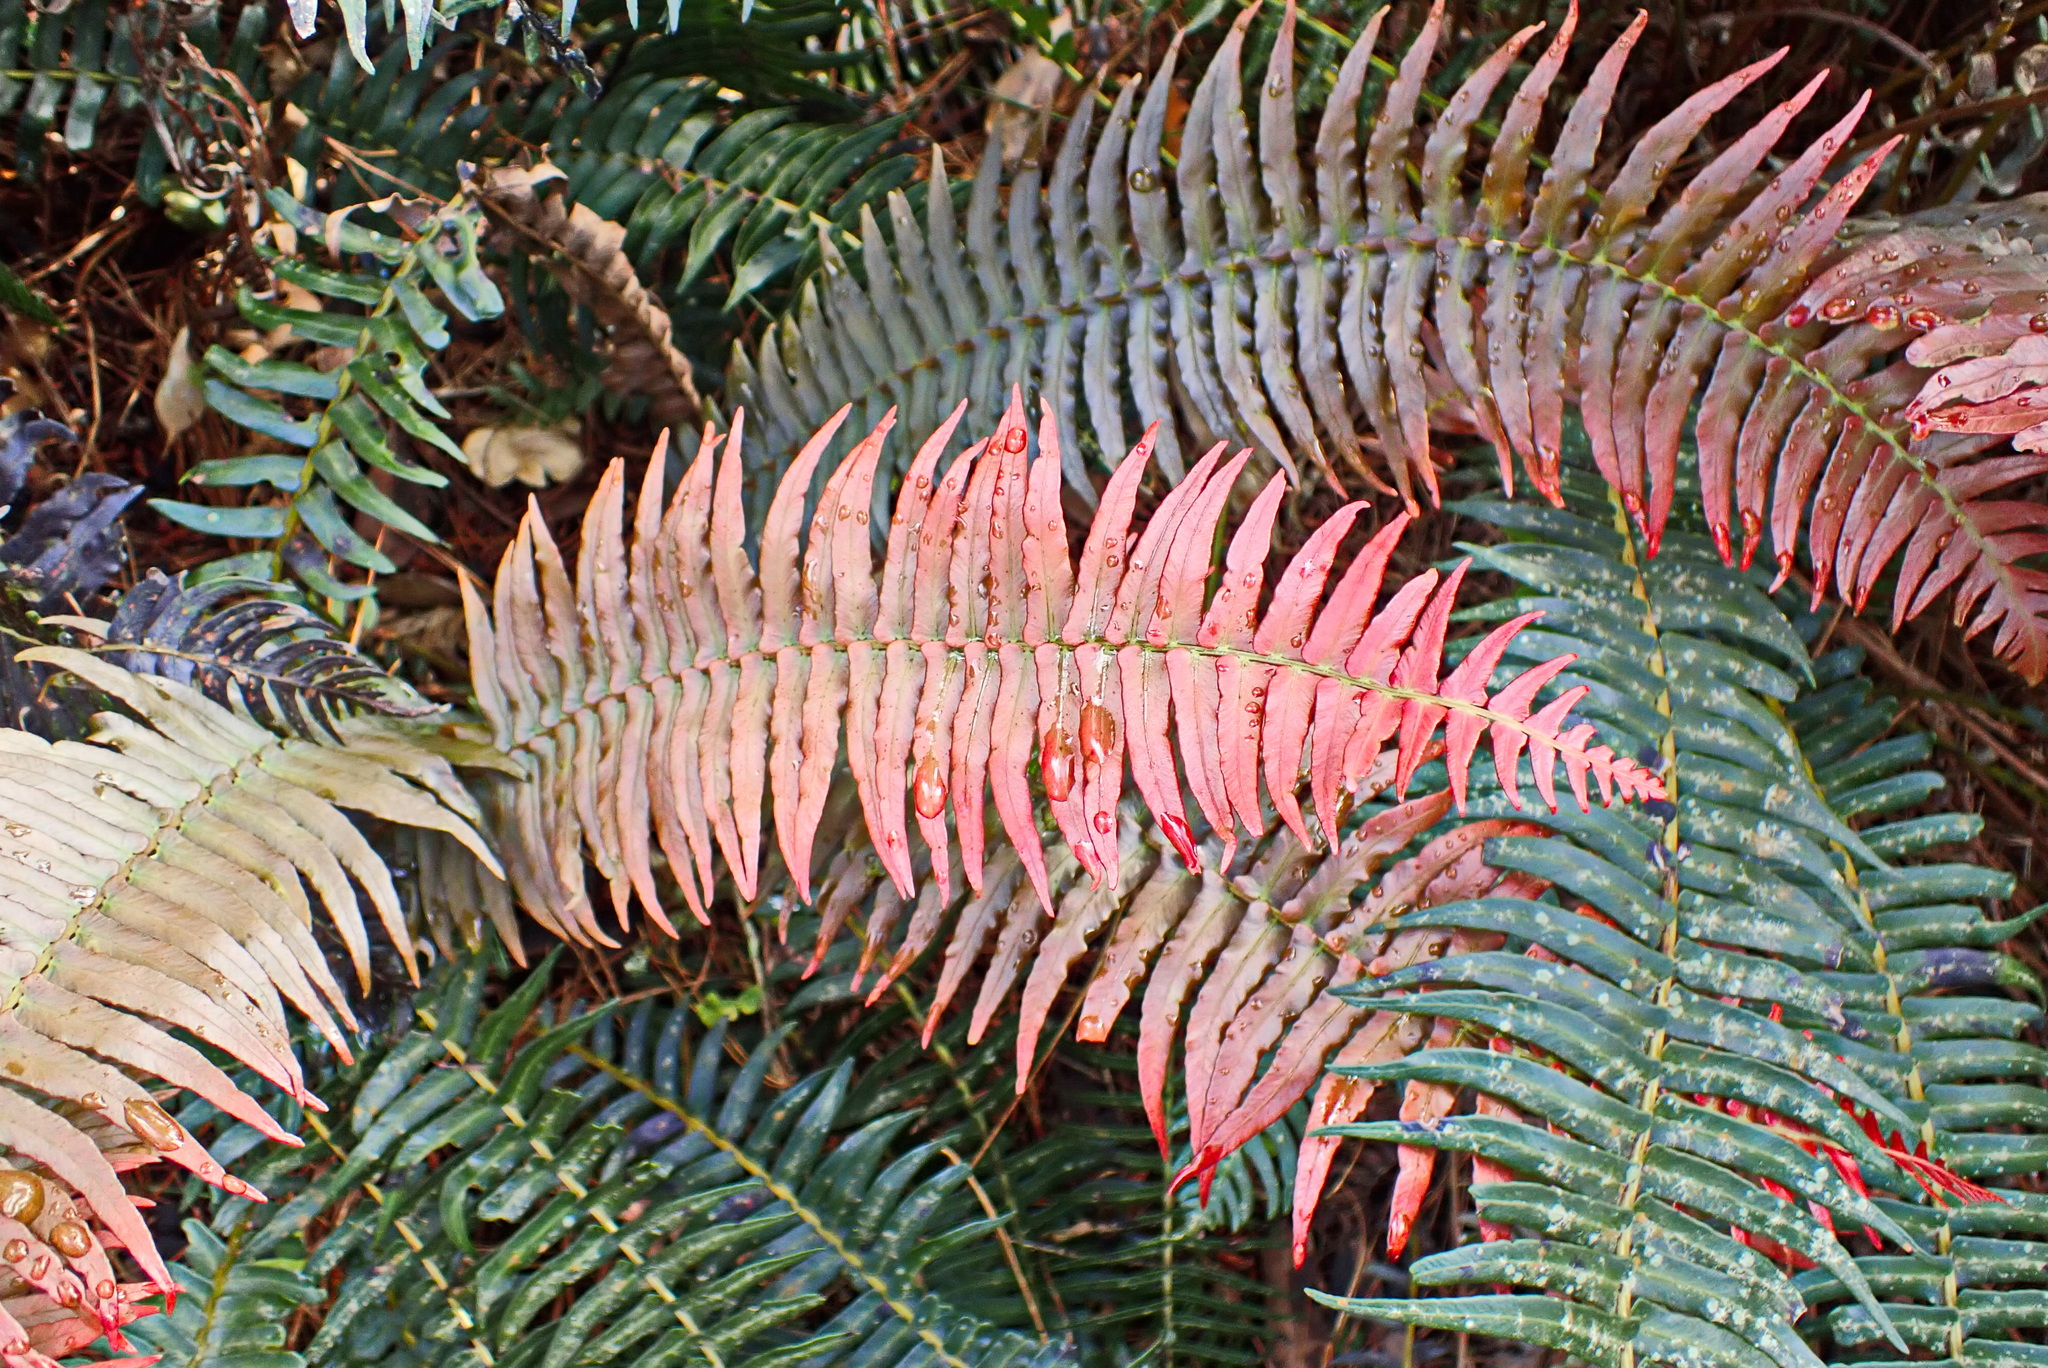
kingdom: Plantae
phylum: Tracheophyta
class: Polypodiopsida
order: Polypodiales
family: Blechnaceae
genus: Blechnum
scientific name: Blechnum punctulatum
